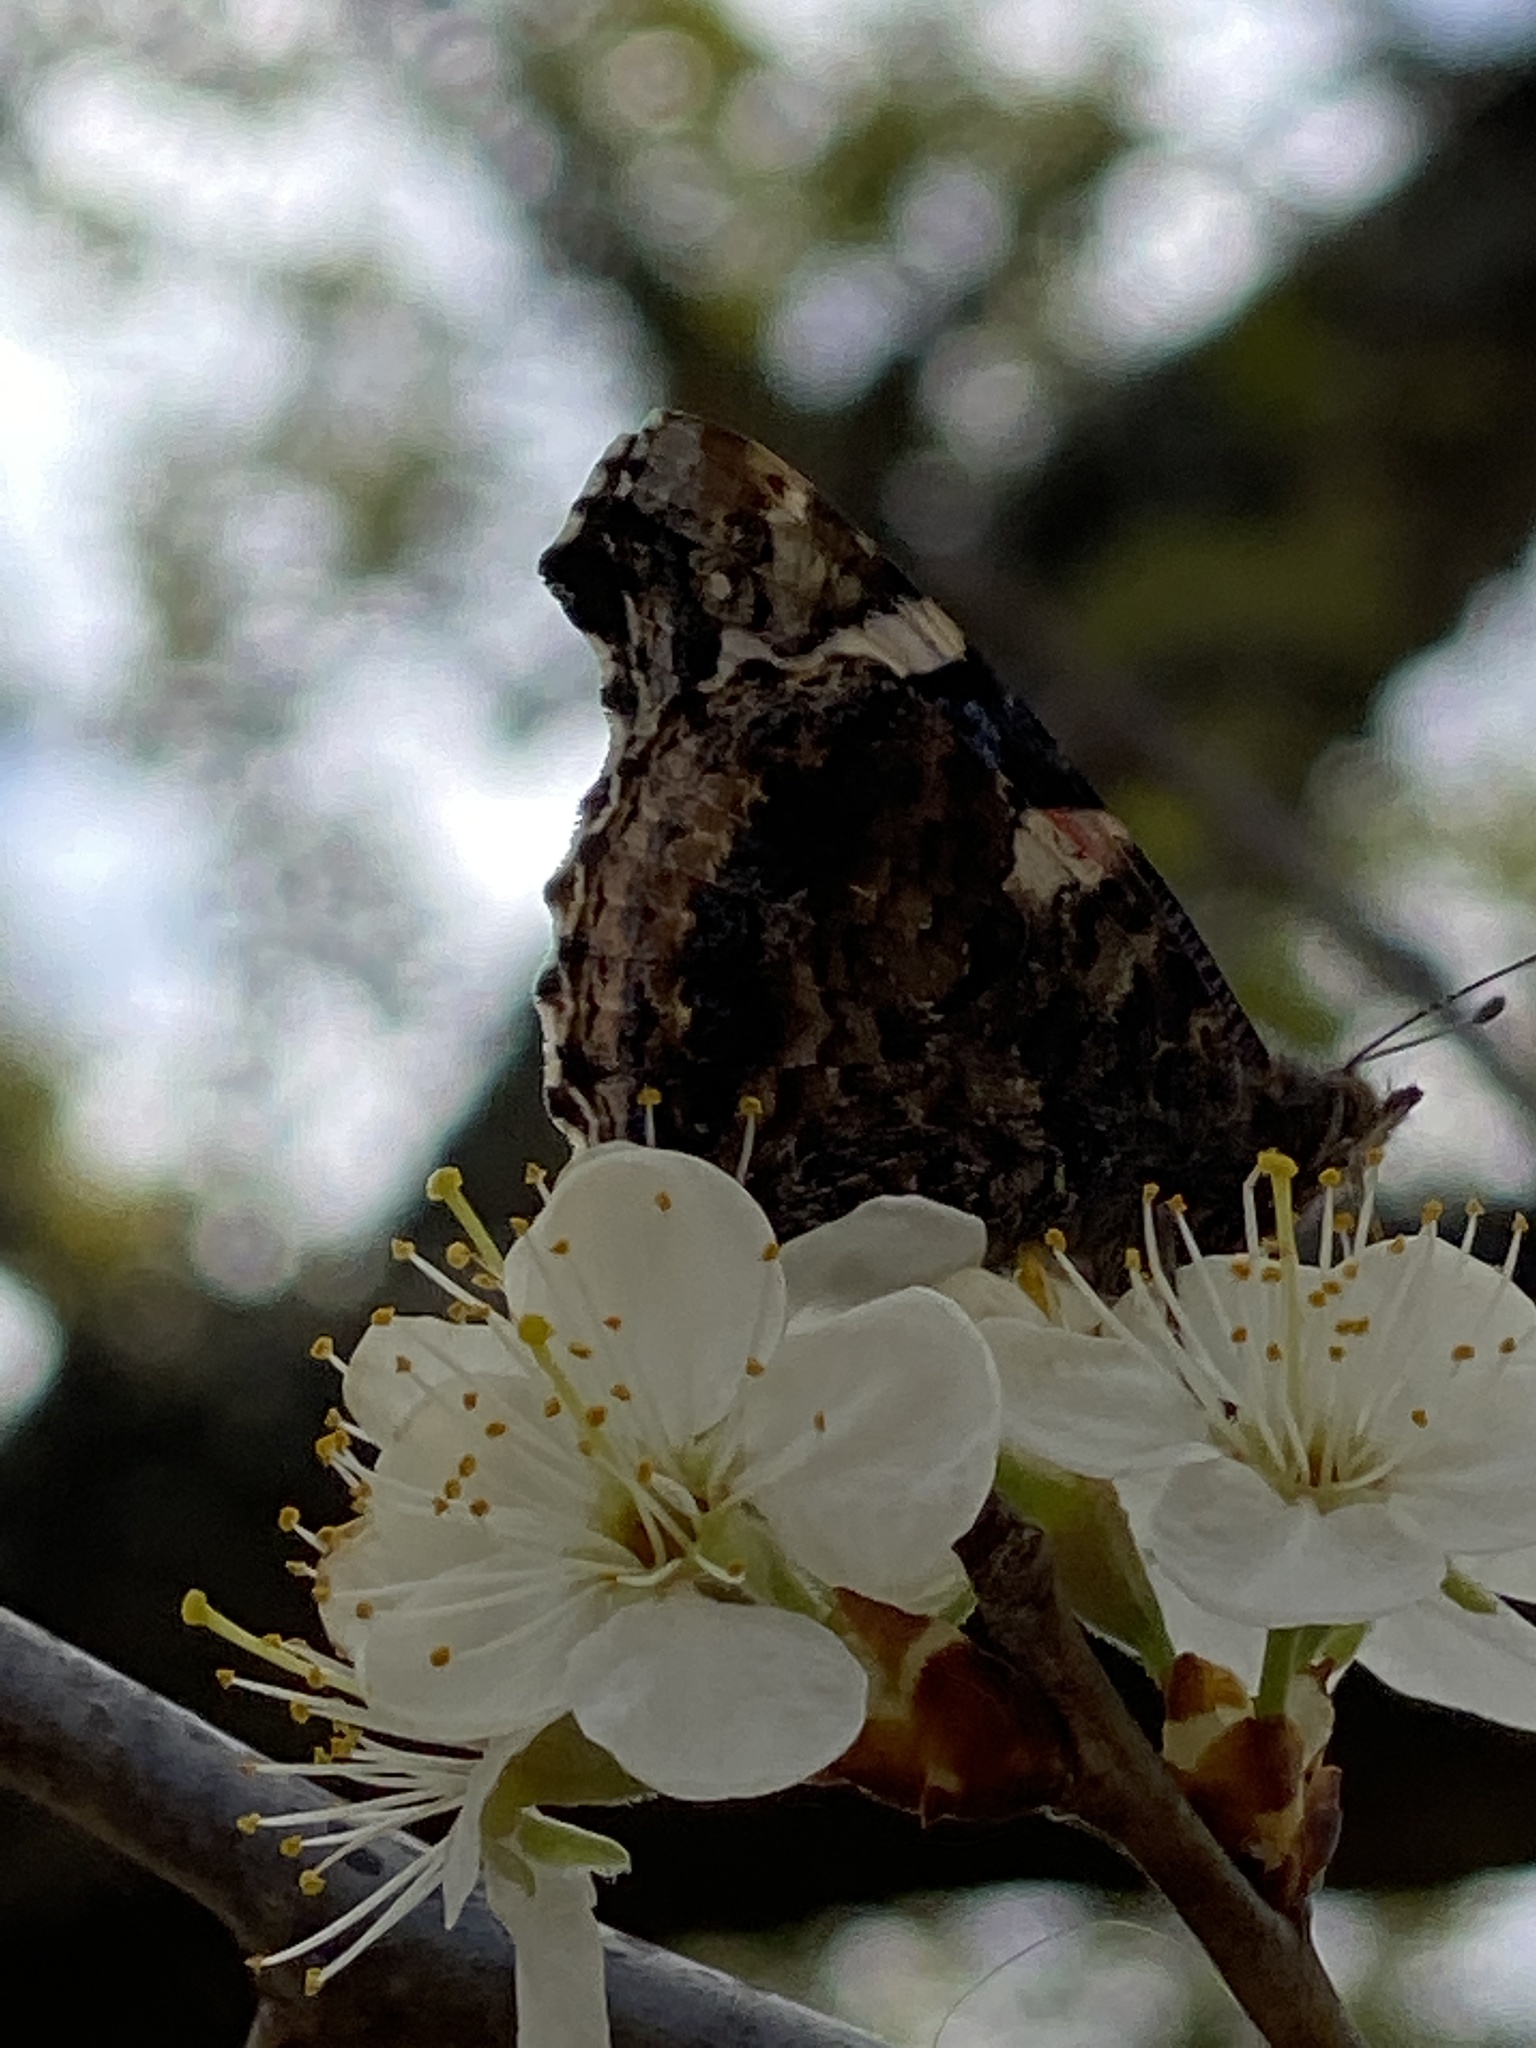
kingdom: Animalia
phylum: Arthropoda
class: Insecta
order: Lepidoptera
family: Nymphalidae
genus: Vanessa
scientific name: Vanessa atalanta
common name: Red admiral
